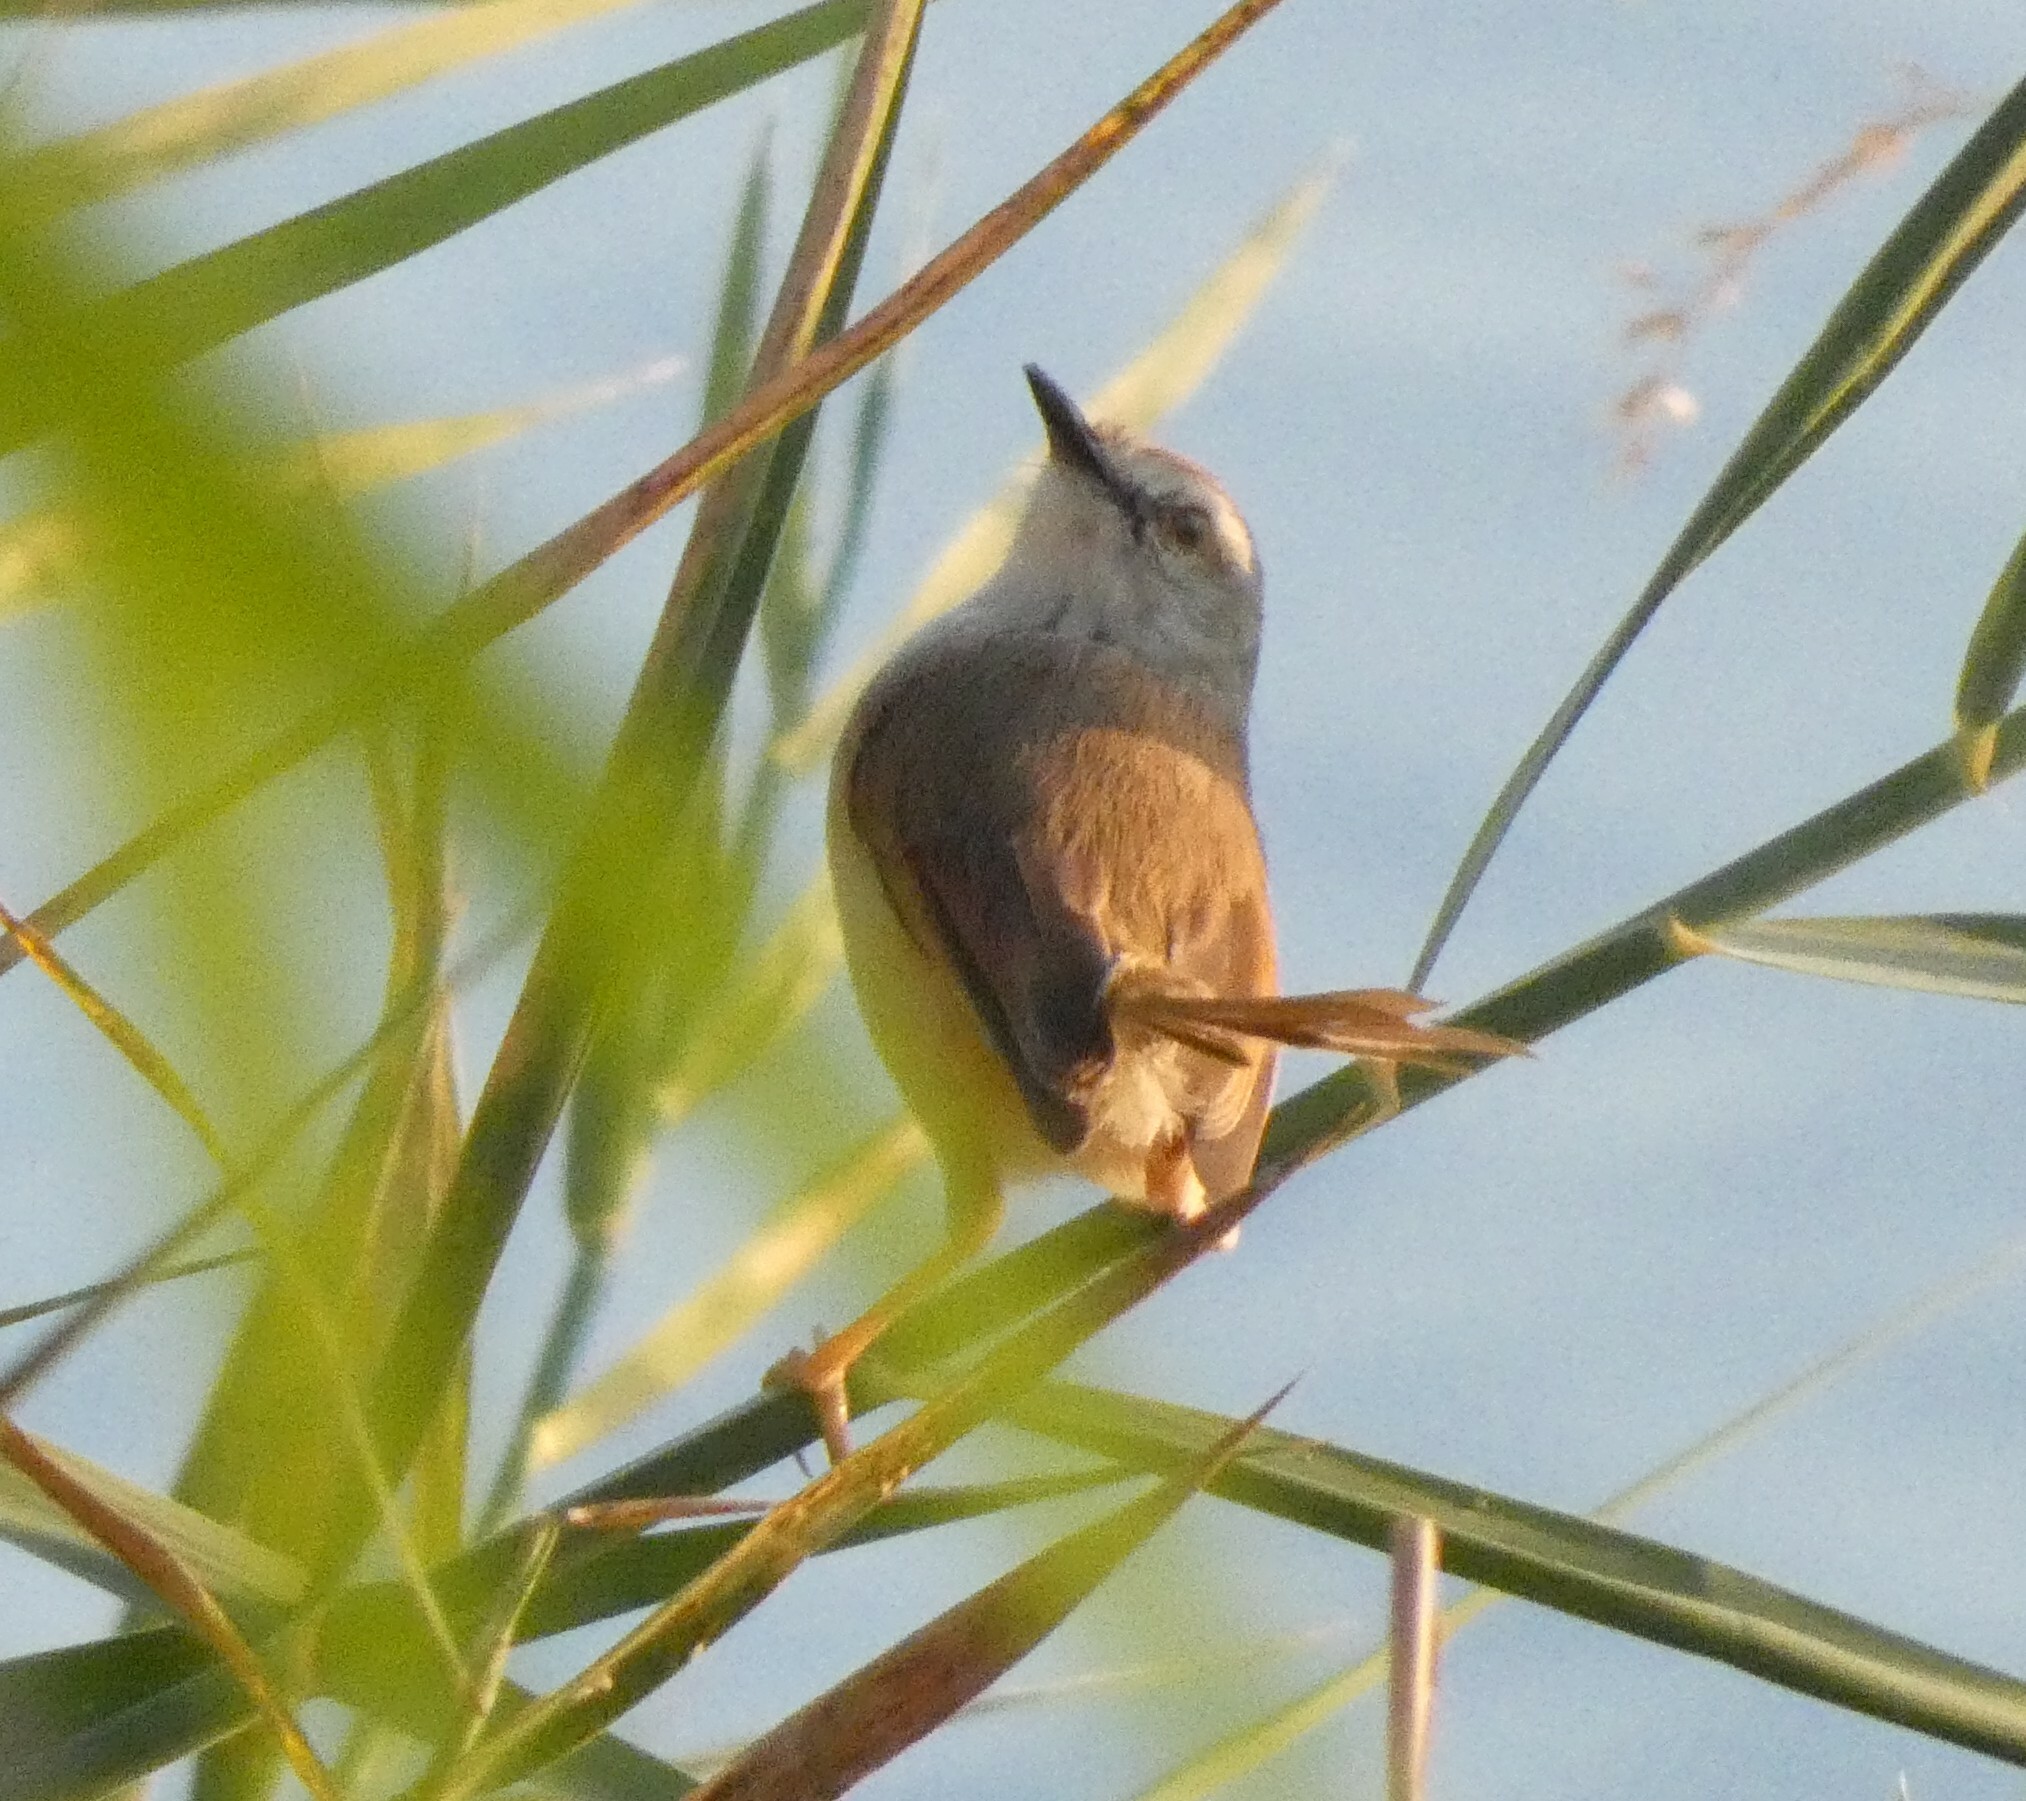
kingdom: Animalia
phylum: Chordata
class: Aves
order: Passeriformes
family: Cisticolidae
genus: Prinia
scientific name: Prinia subflava
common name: Tawny-flanked prinia
